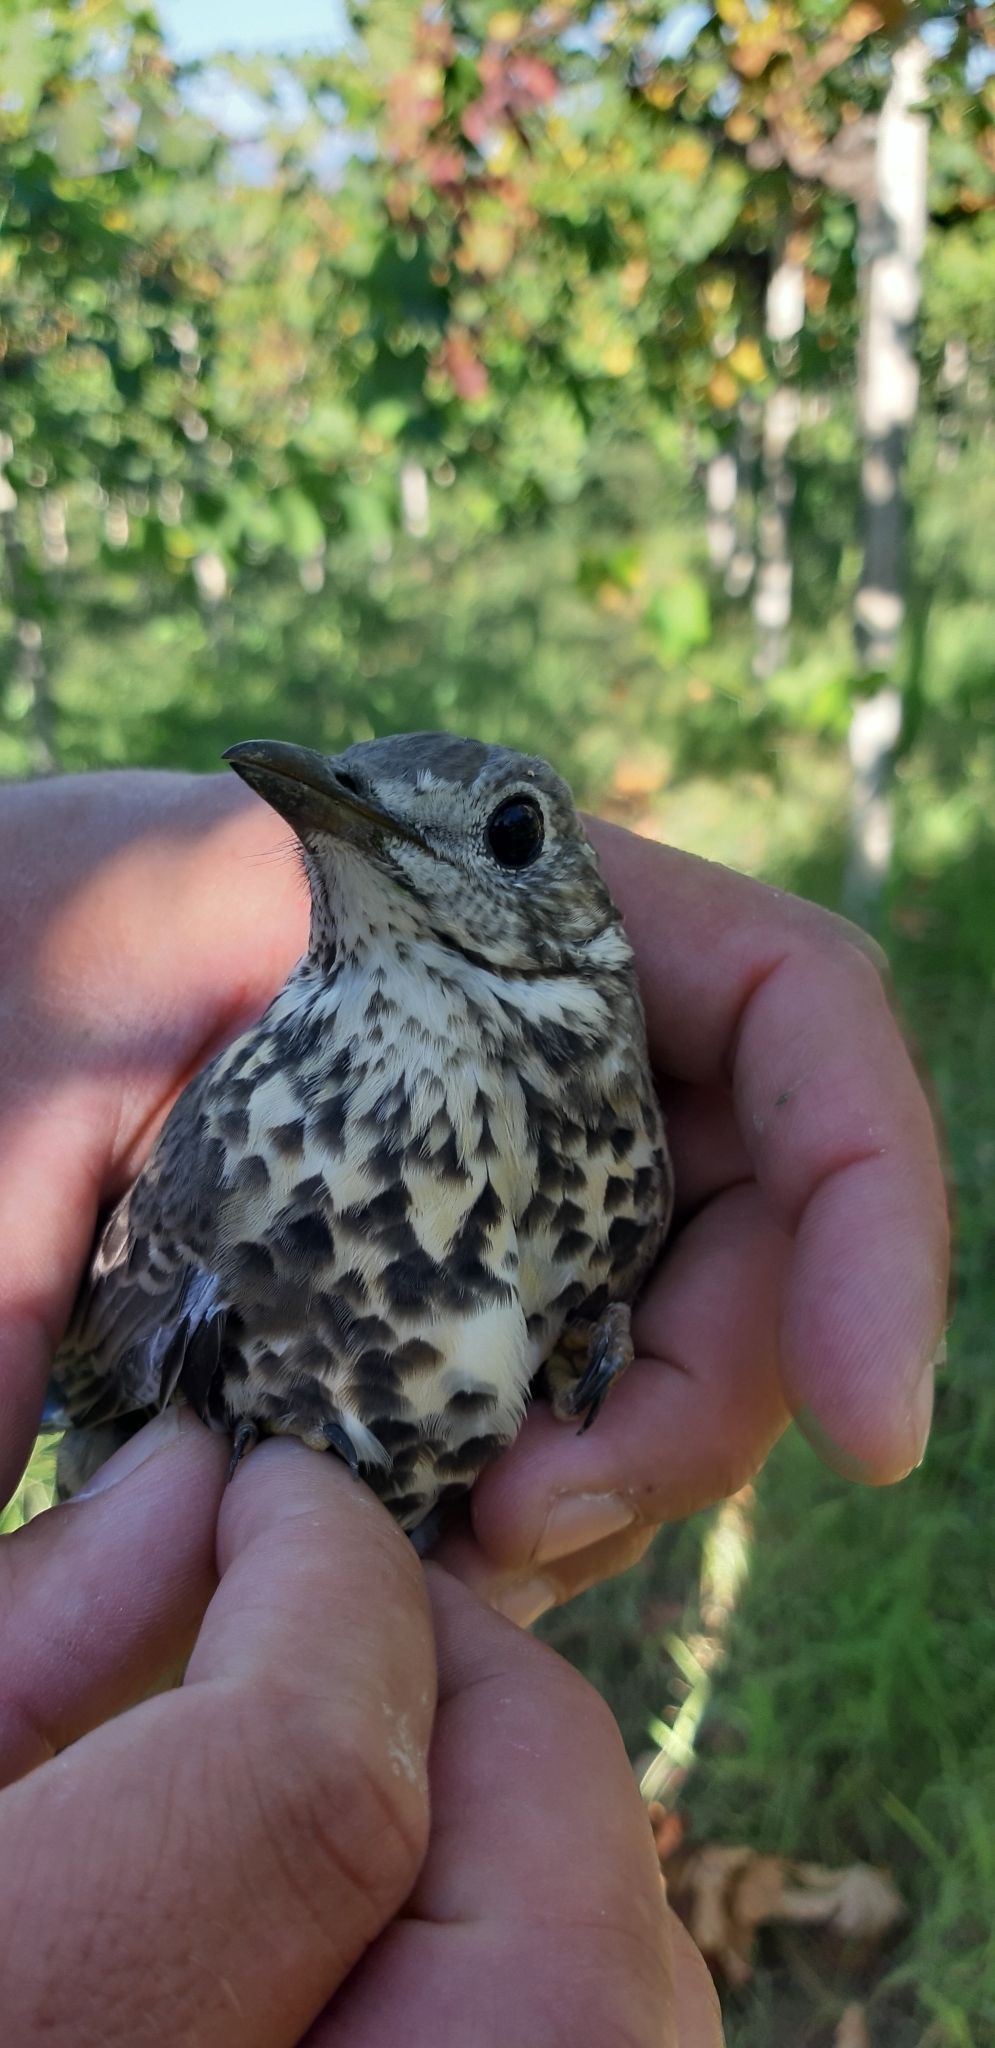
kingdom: Animalia
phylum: Chordata
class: Aves
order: Passeriformes
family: Turdidae
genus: Turdus
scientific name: Turdus viscivorus
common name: Mistle thrush
